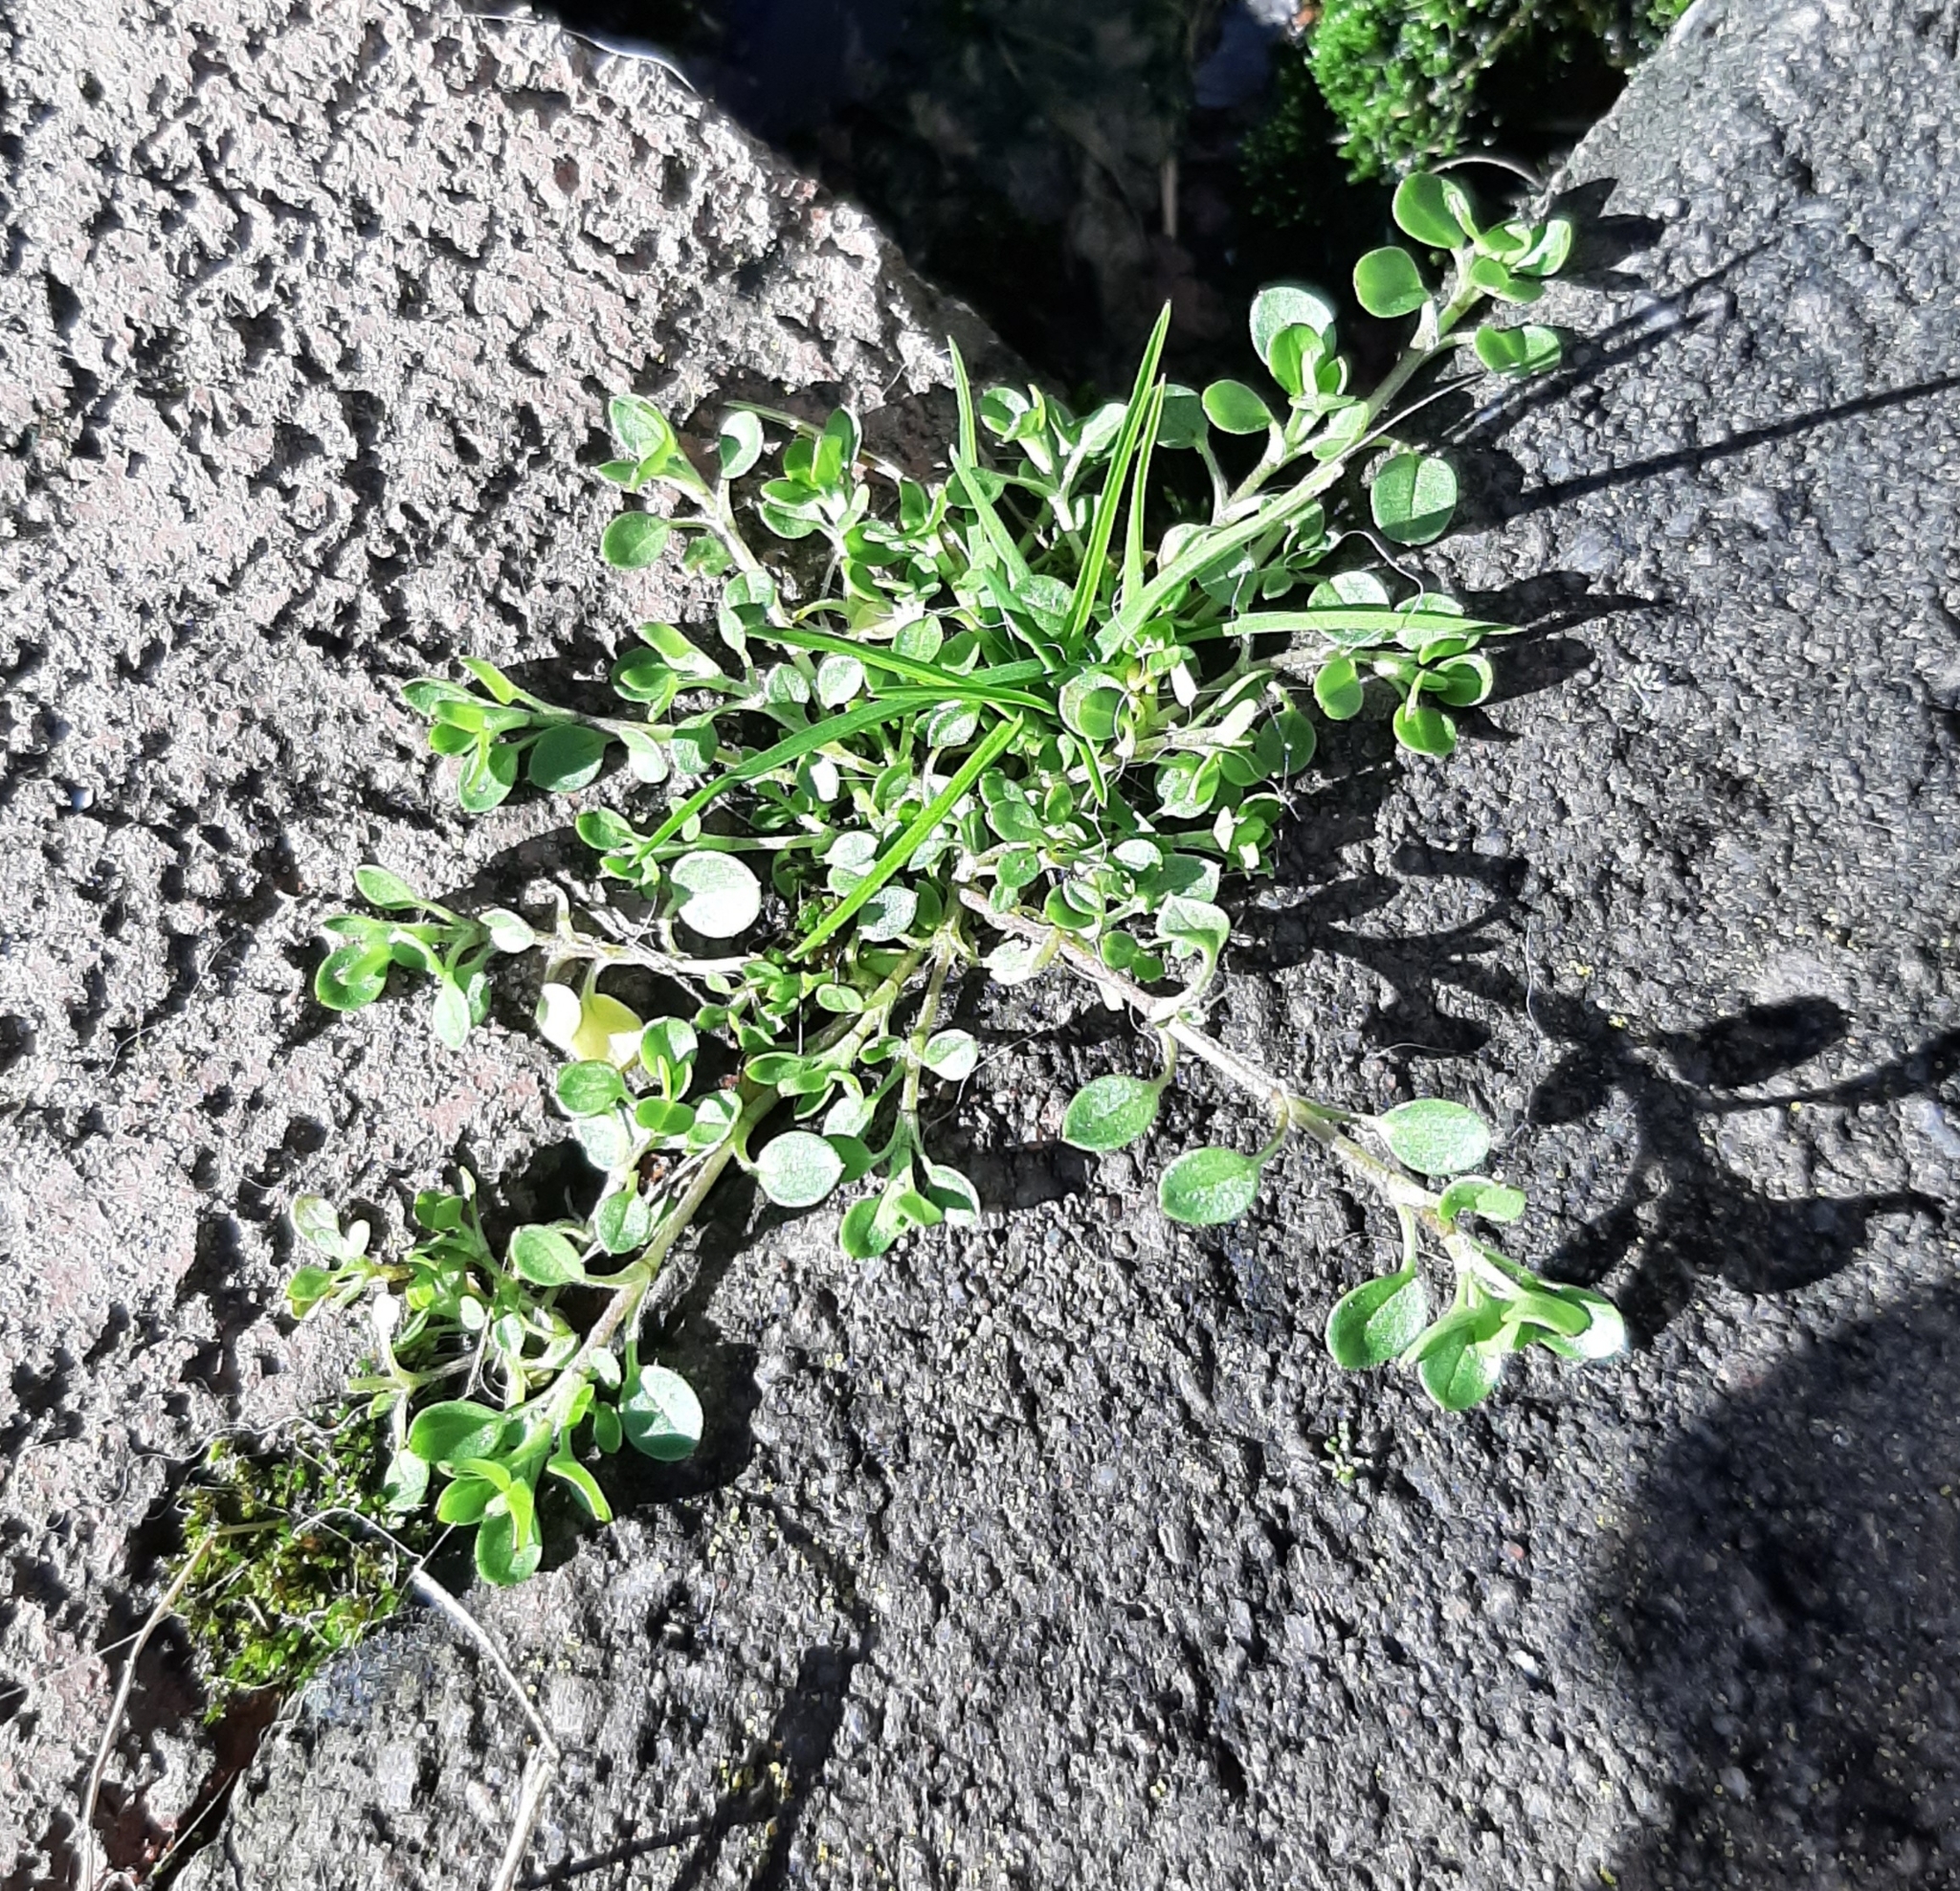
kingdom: Plantae
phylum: Tracheophyta
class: Magnoliopsida
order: Caryophyllales
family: Caryophyllaceae
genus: Stellaria
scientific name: Stellaria media
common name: Common chickweed
